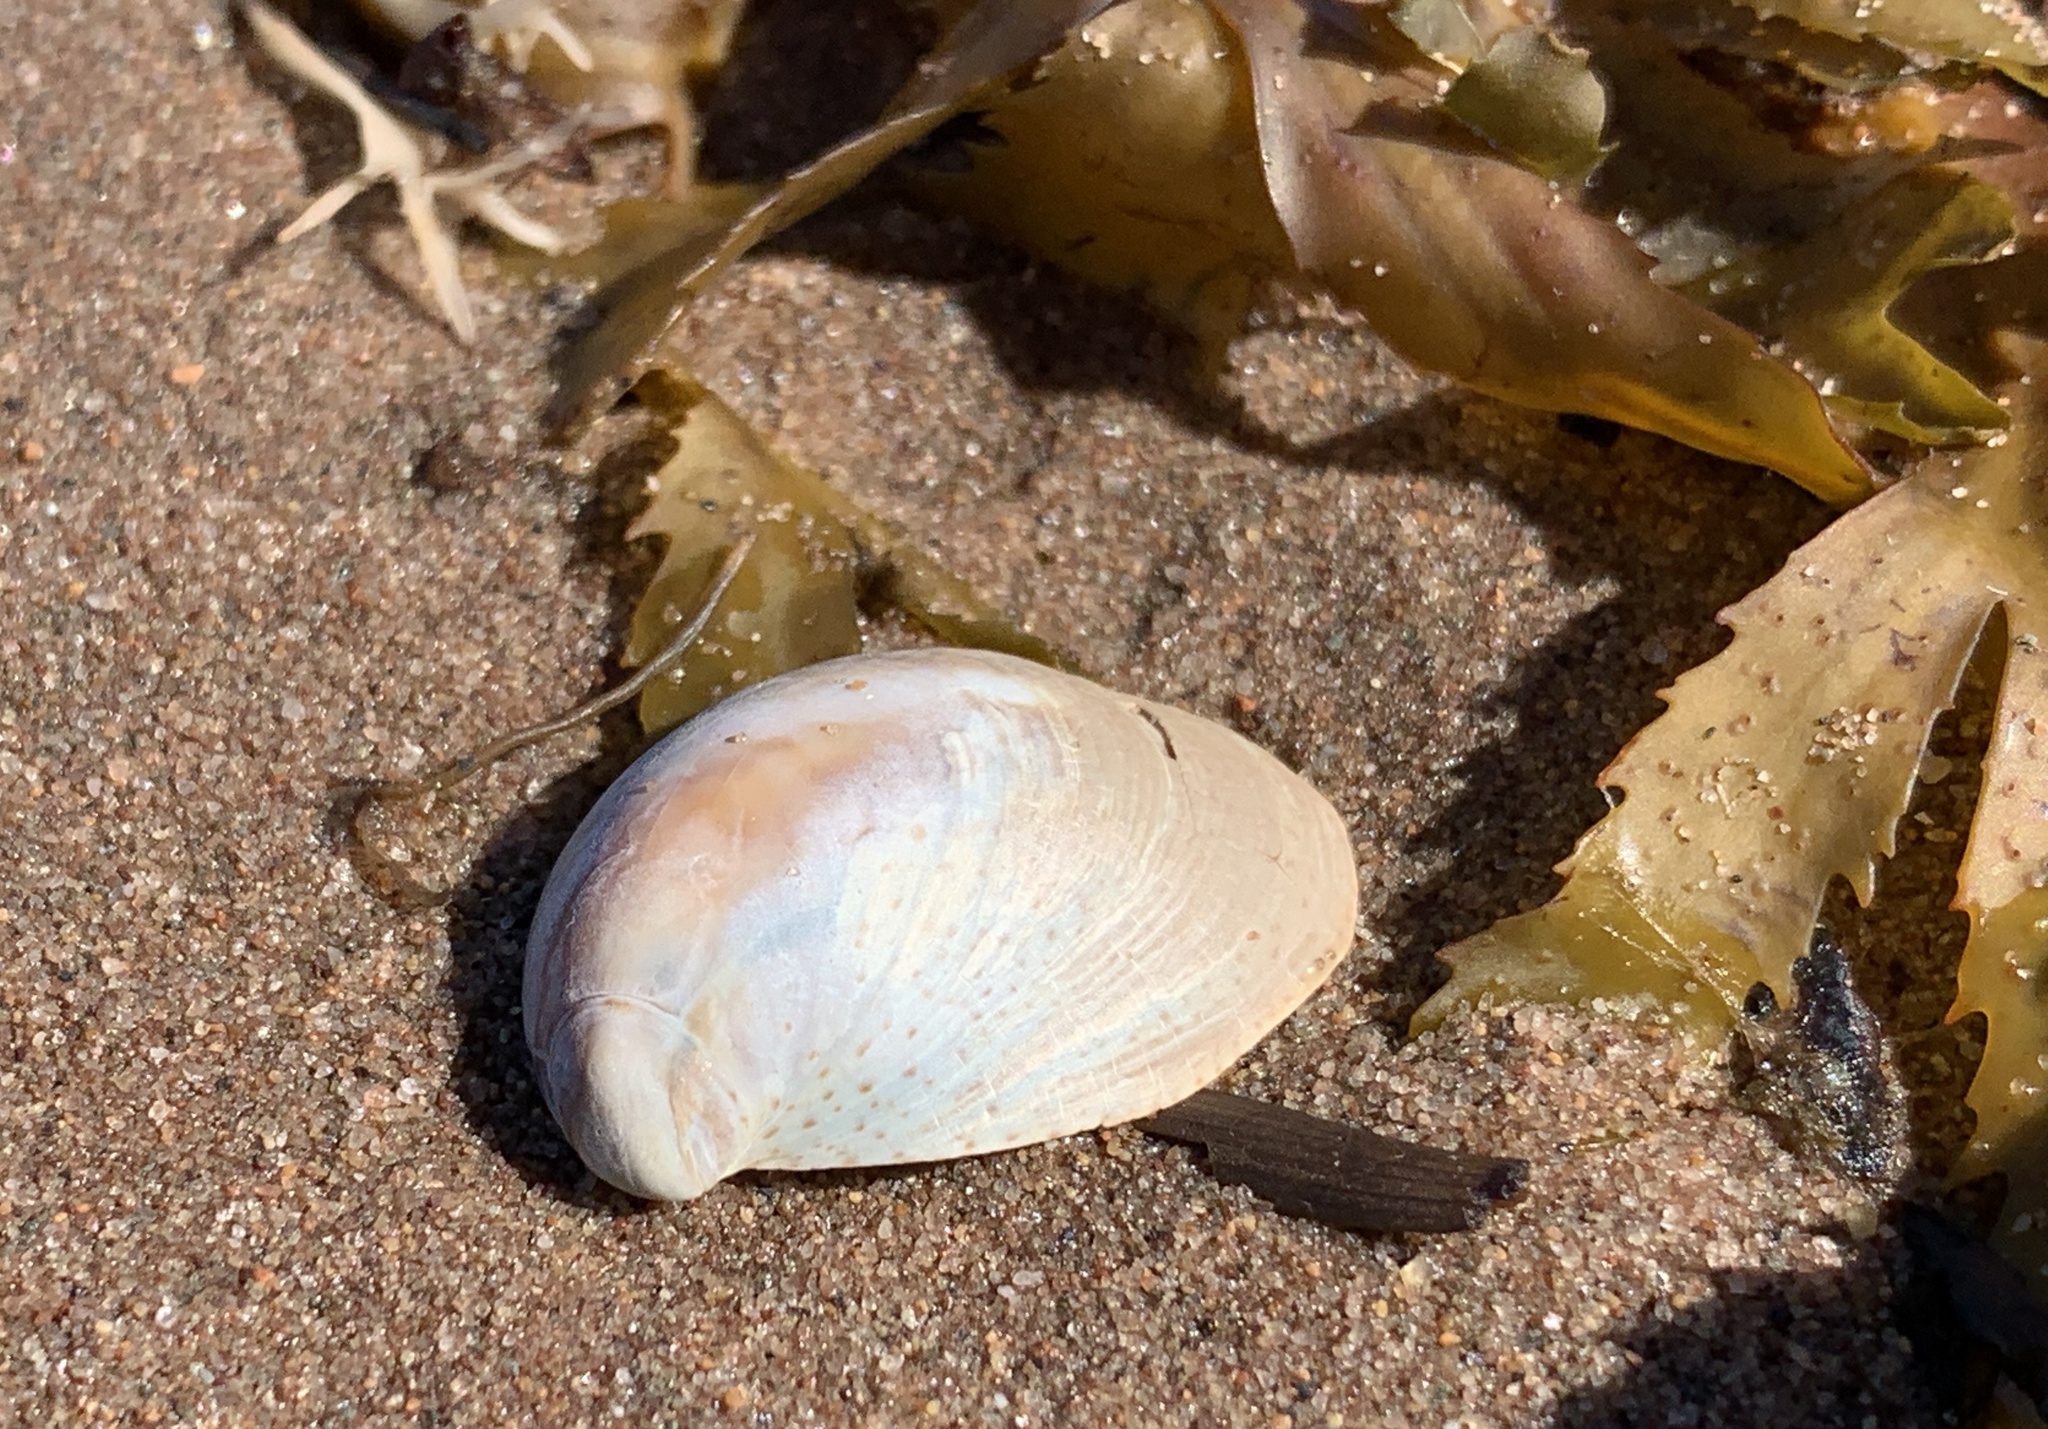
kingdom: Animalia
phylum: Mollusca
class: Gastropoda
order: Littorinimorpha
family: Calyptraeidae
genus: Crepidula
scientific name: Crepidula fornicata
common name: Slipper limpet
